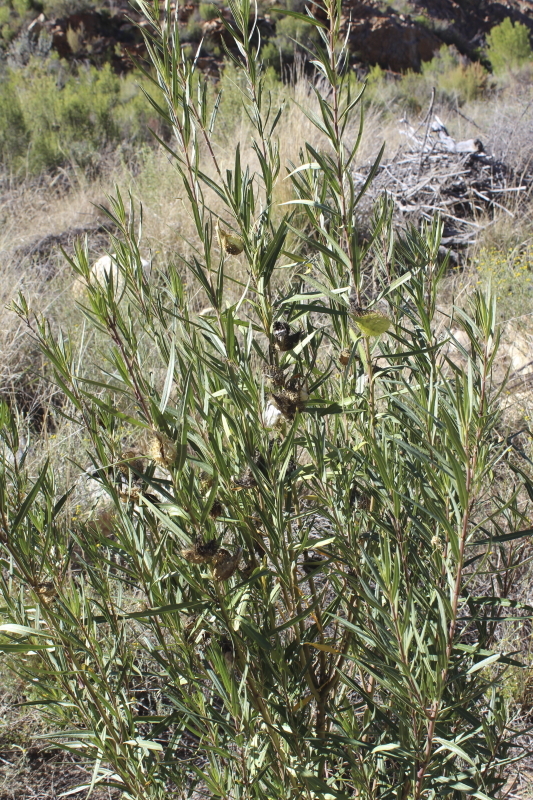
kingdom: Plantae
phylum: Tracheophyta
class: Magnoliopsida
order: Gentianales
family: Apocynaceae
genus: Gomphocarpus
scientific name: Gomphocarpus fruticosus
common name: Milkweed
